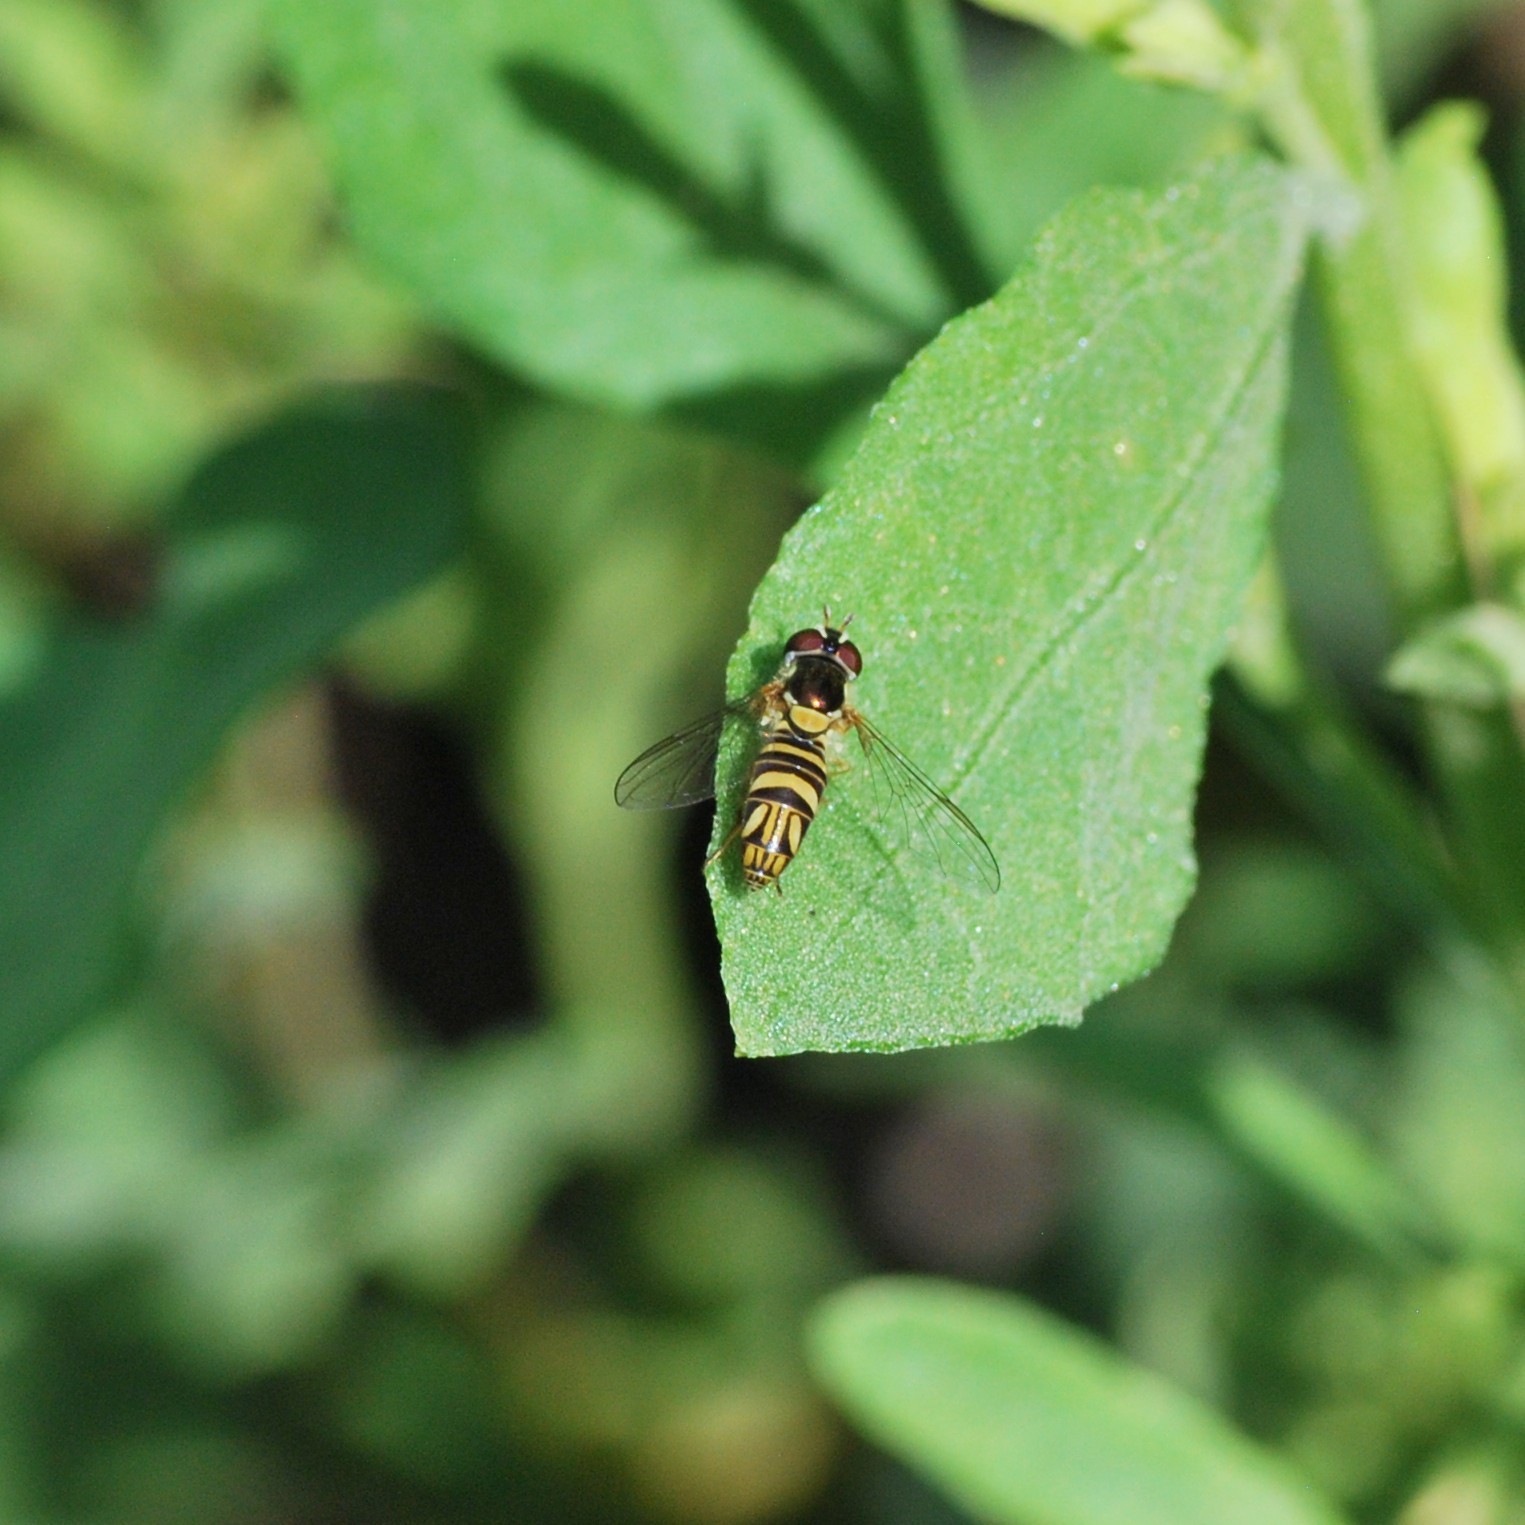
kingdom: Animalia
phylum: Arthropoda
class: Insecta
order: Diptera
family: Syrphidae
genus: Allograpta
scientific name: Allograpta obliqua
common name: Common oblique syrphid
